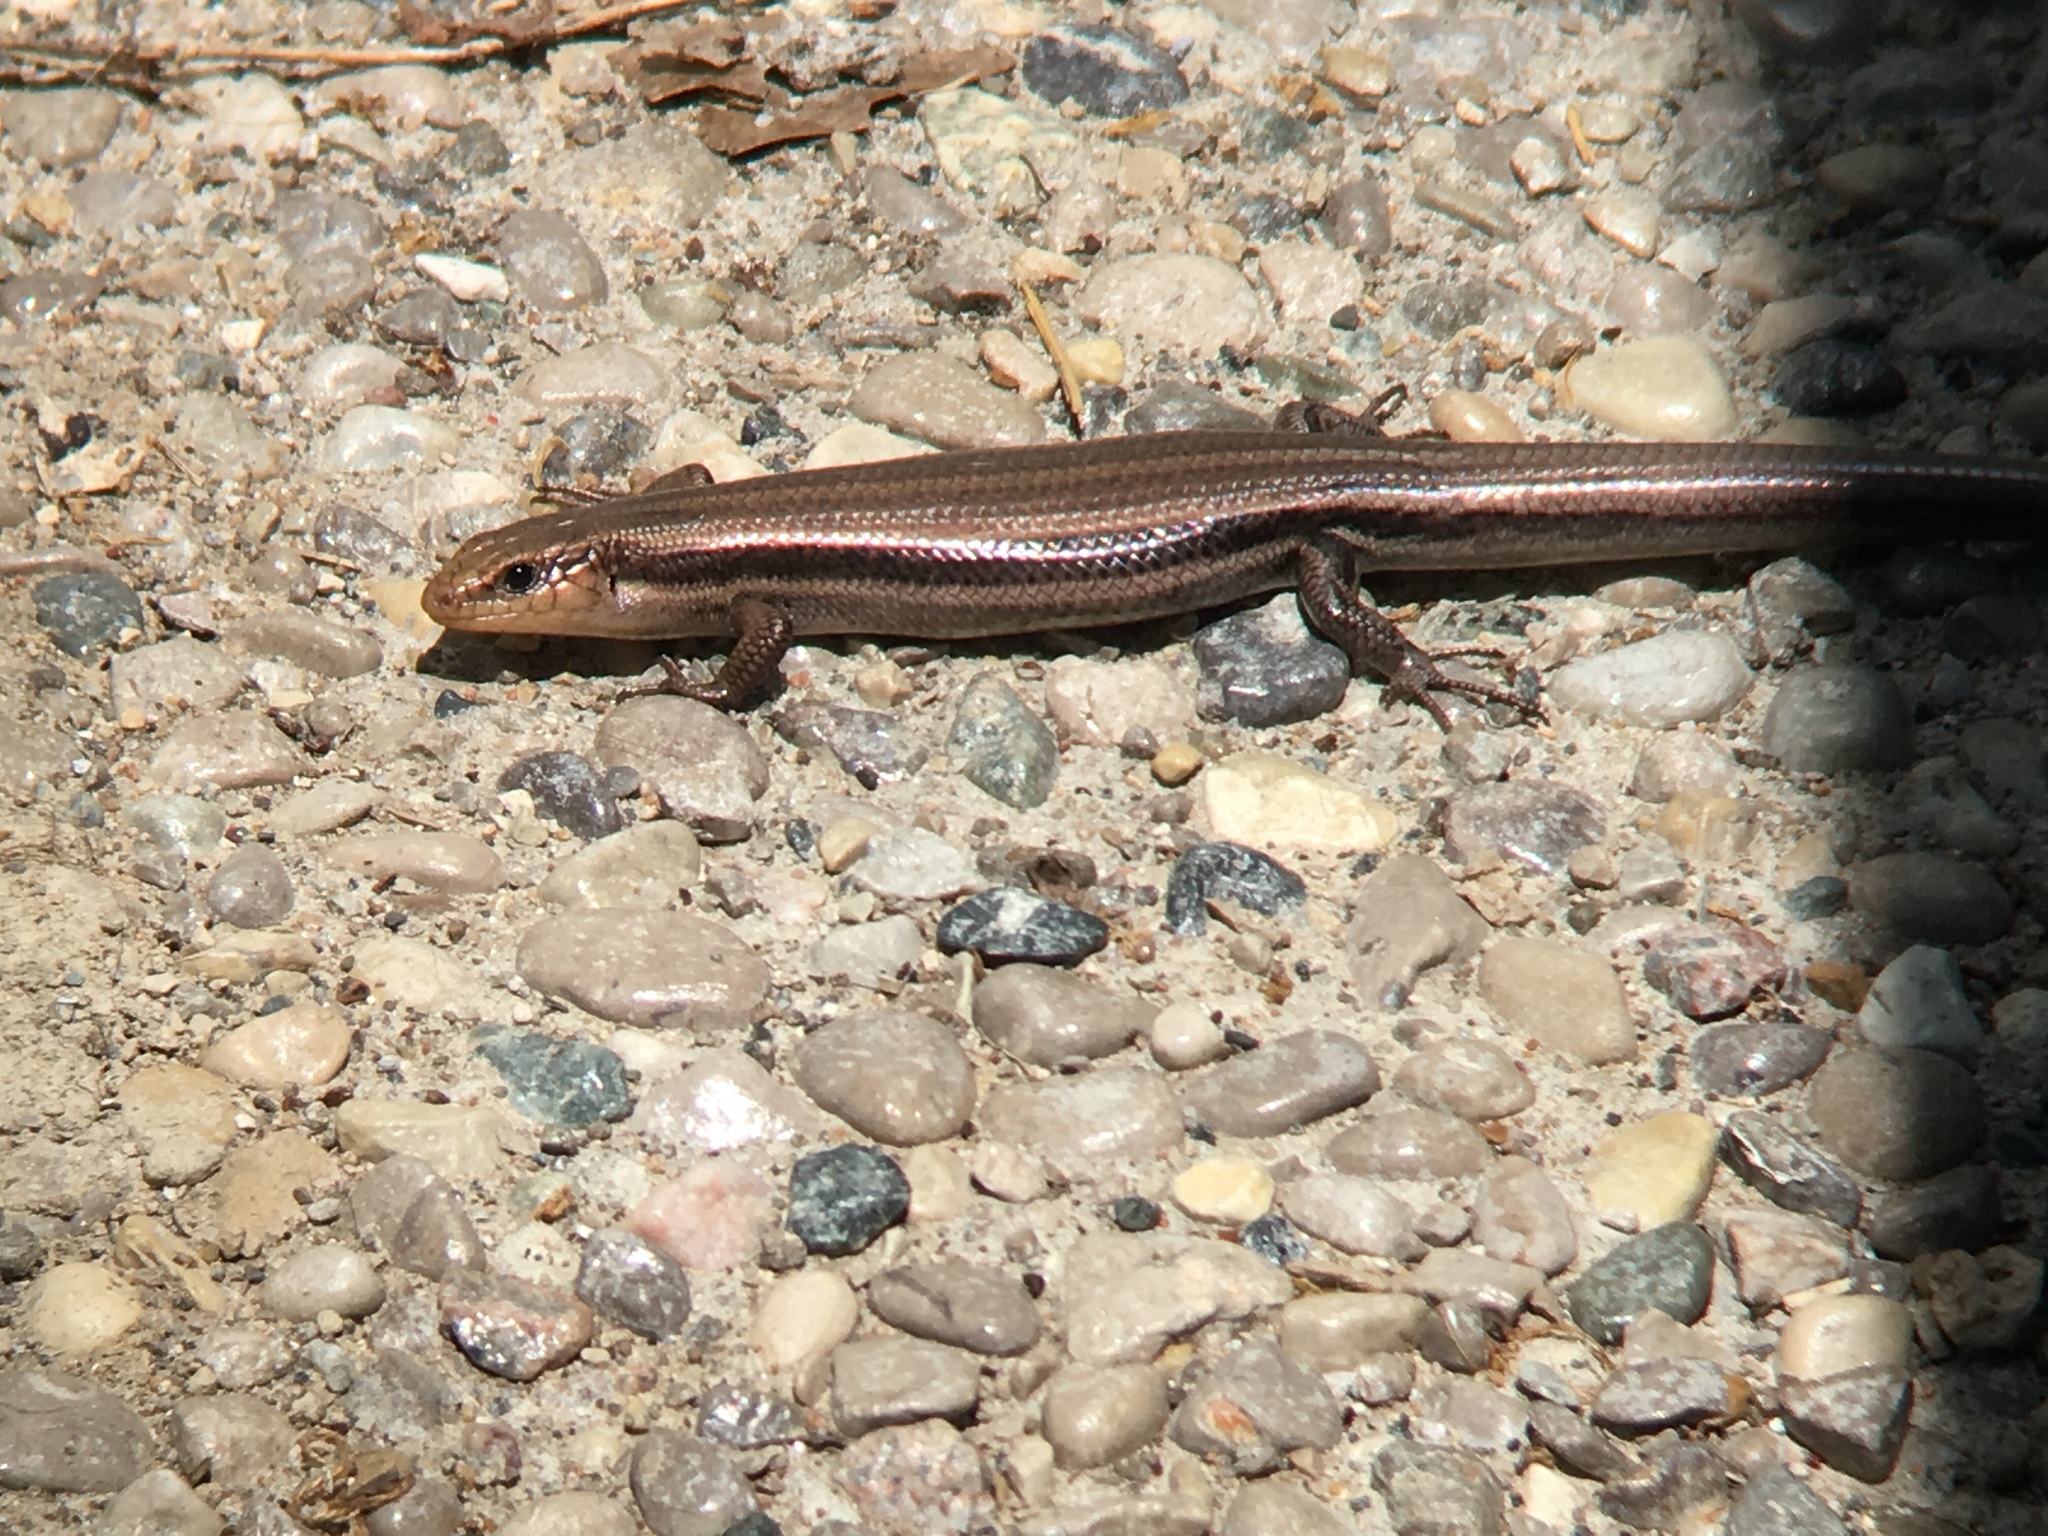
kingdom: Animalia
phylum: Chordata
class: Squamata
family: Scincidae
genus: Plestiodon
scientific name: Plestiodon fasciatus
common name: Five-lined skink
